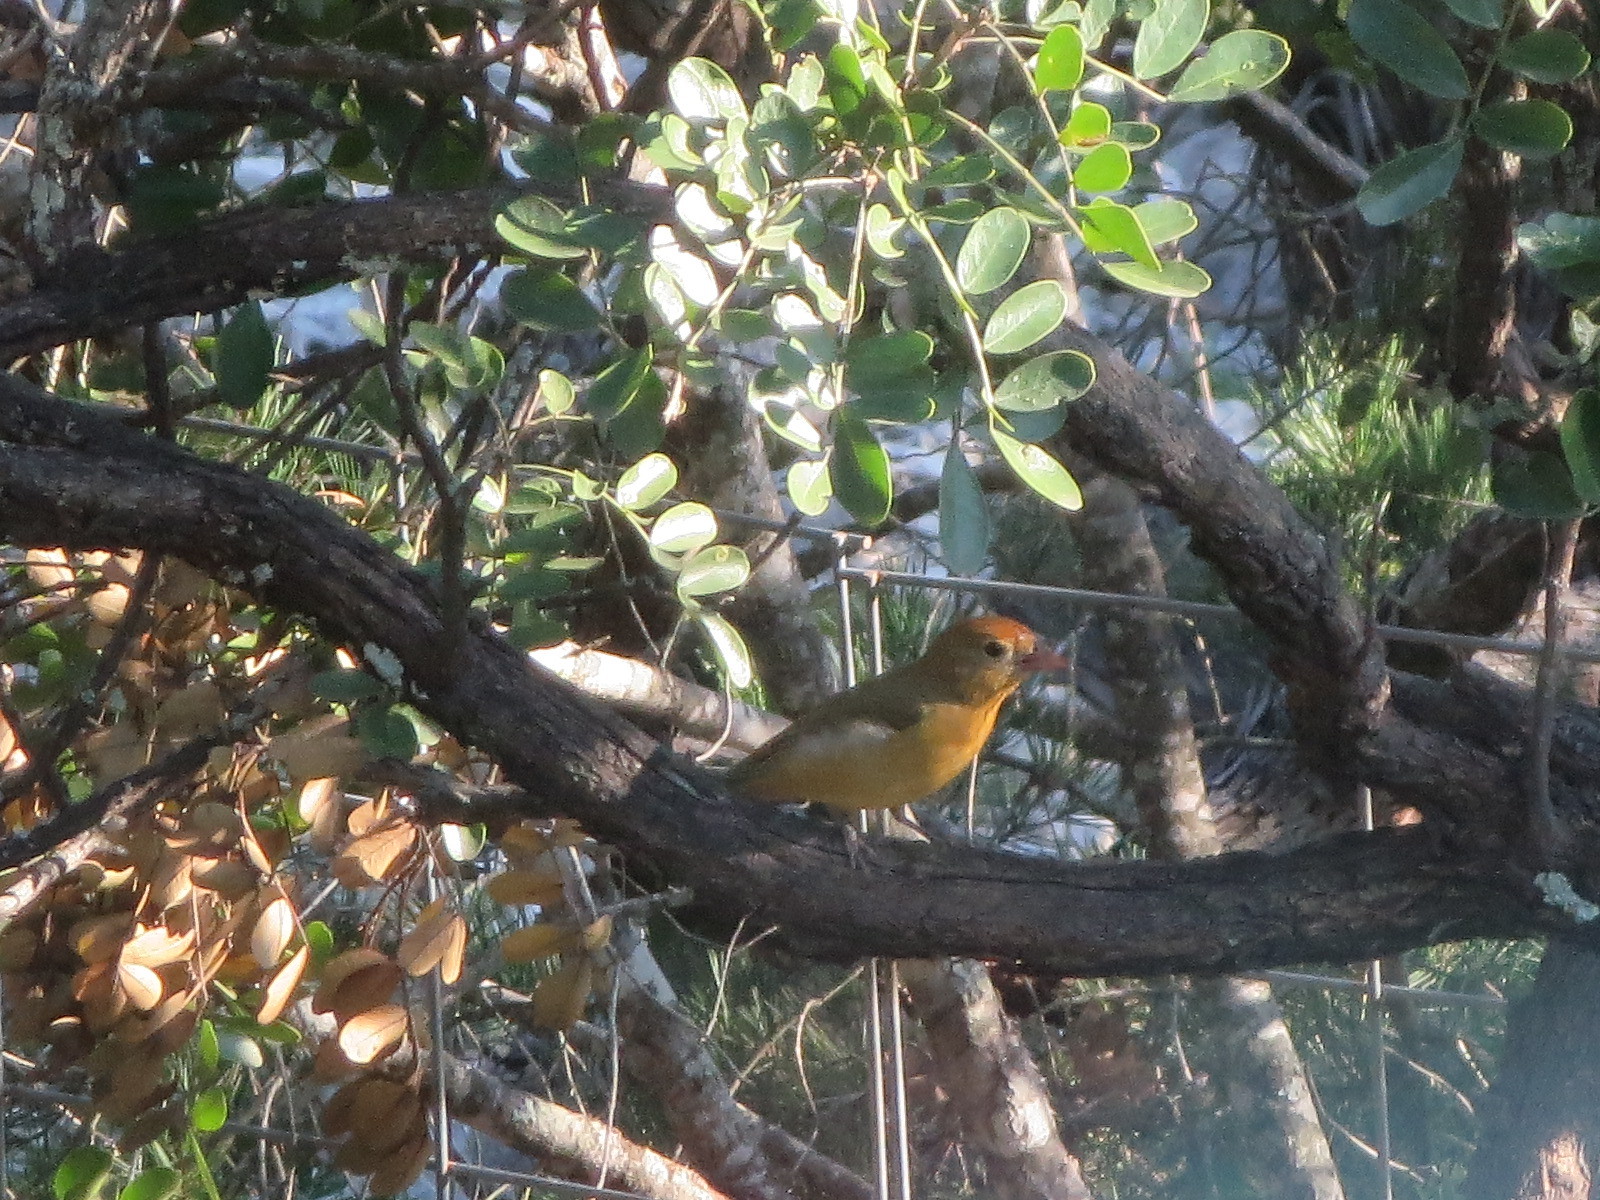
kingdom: Animalia
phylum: Chordata
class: Aves
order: Passeriformes
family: Cardinalidae
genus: Piranga
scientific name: Piranga rubra
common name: Summer tanager
